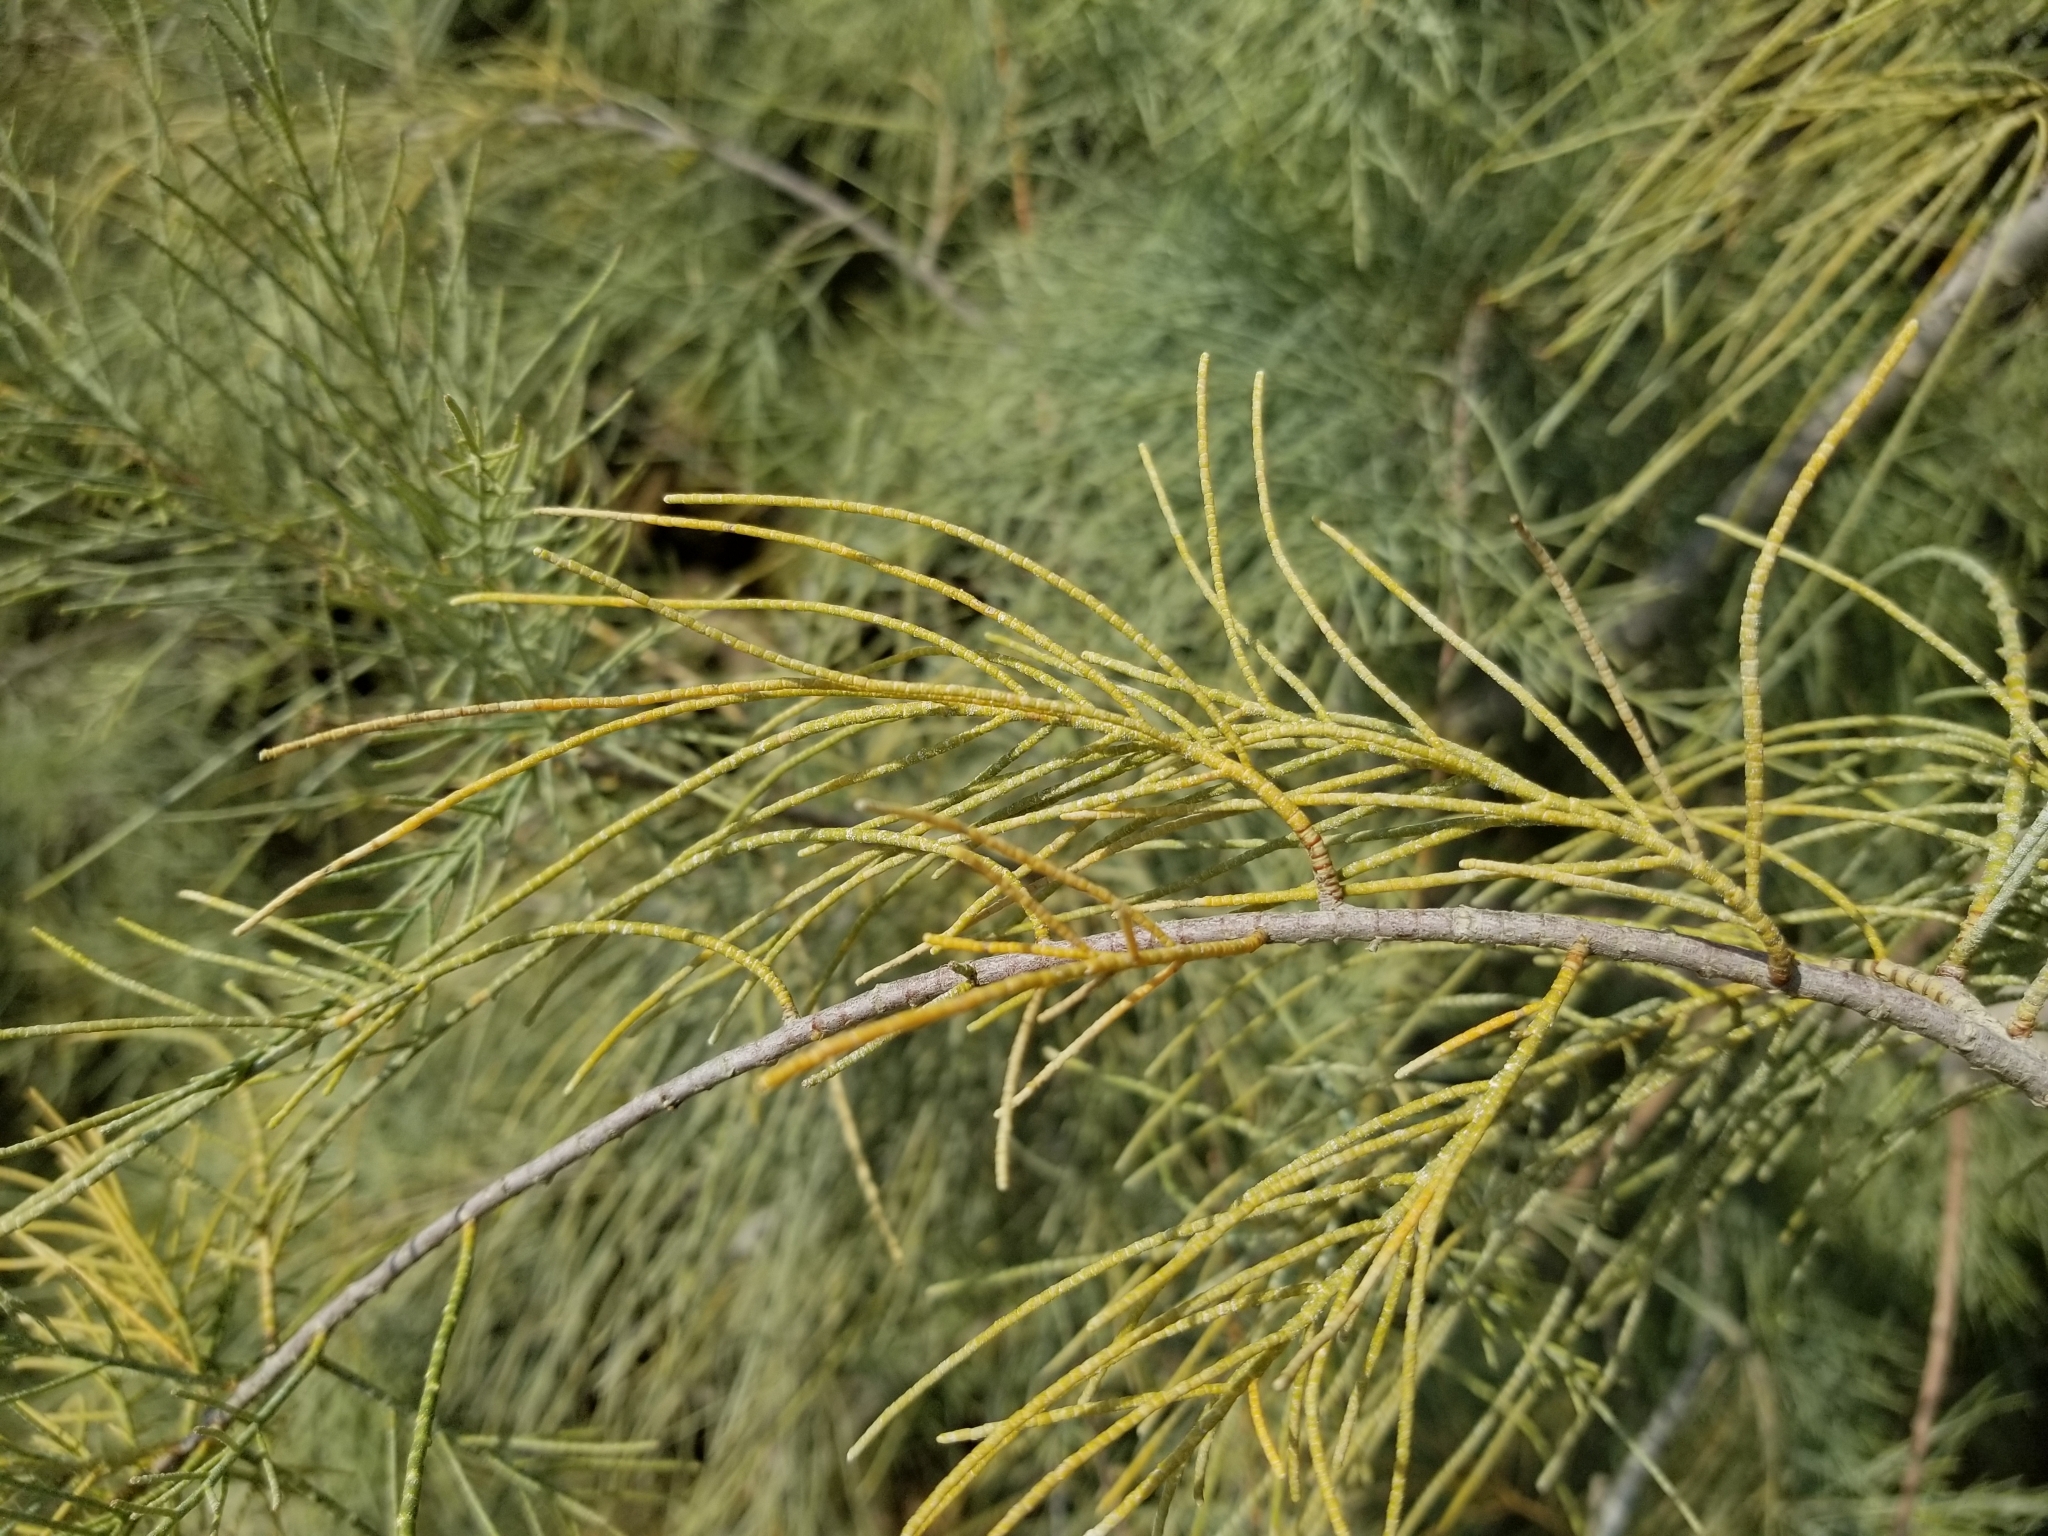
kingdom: Plantae
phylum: Tracheophyta
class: Magnoliopsida
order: Caryophyllales
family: Tamaricaceae
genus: Tamarix
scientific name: Tamarix aphylla
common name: Athel tamarisk
